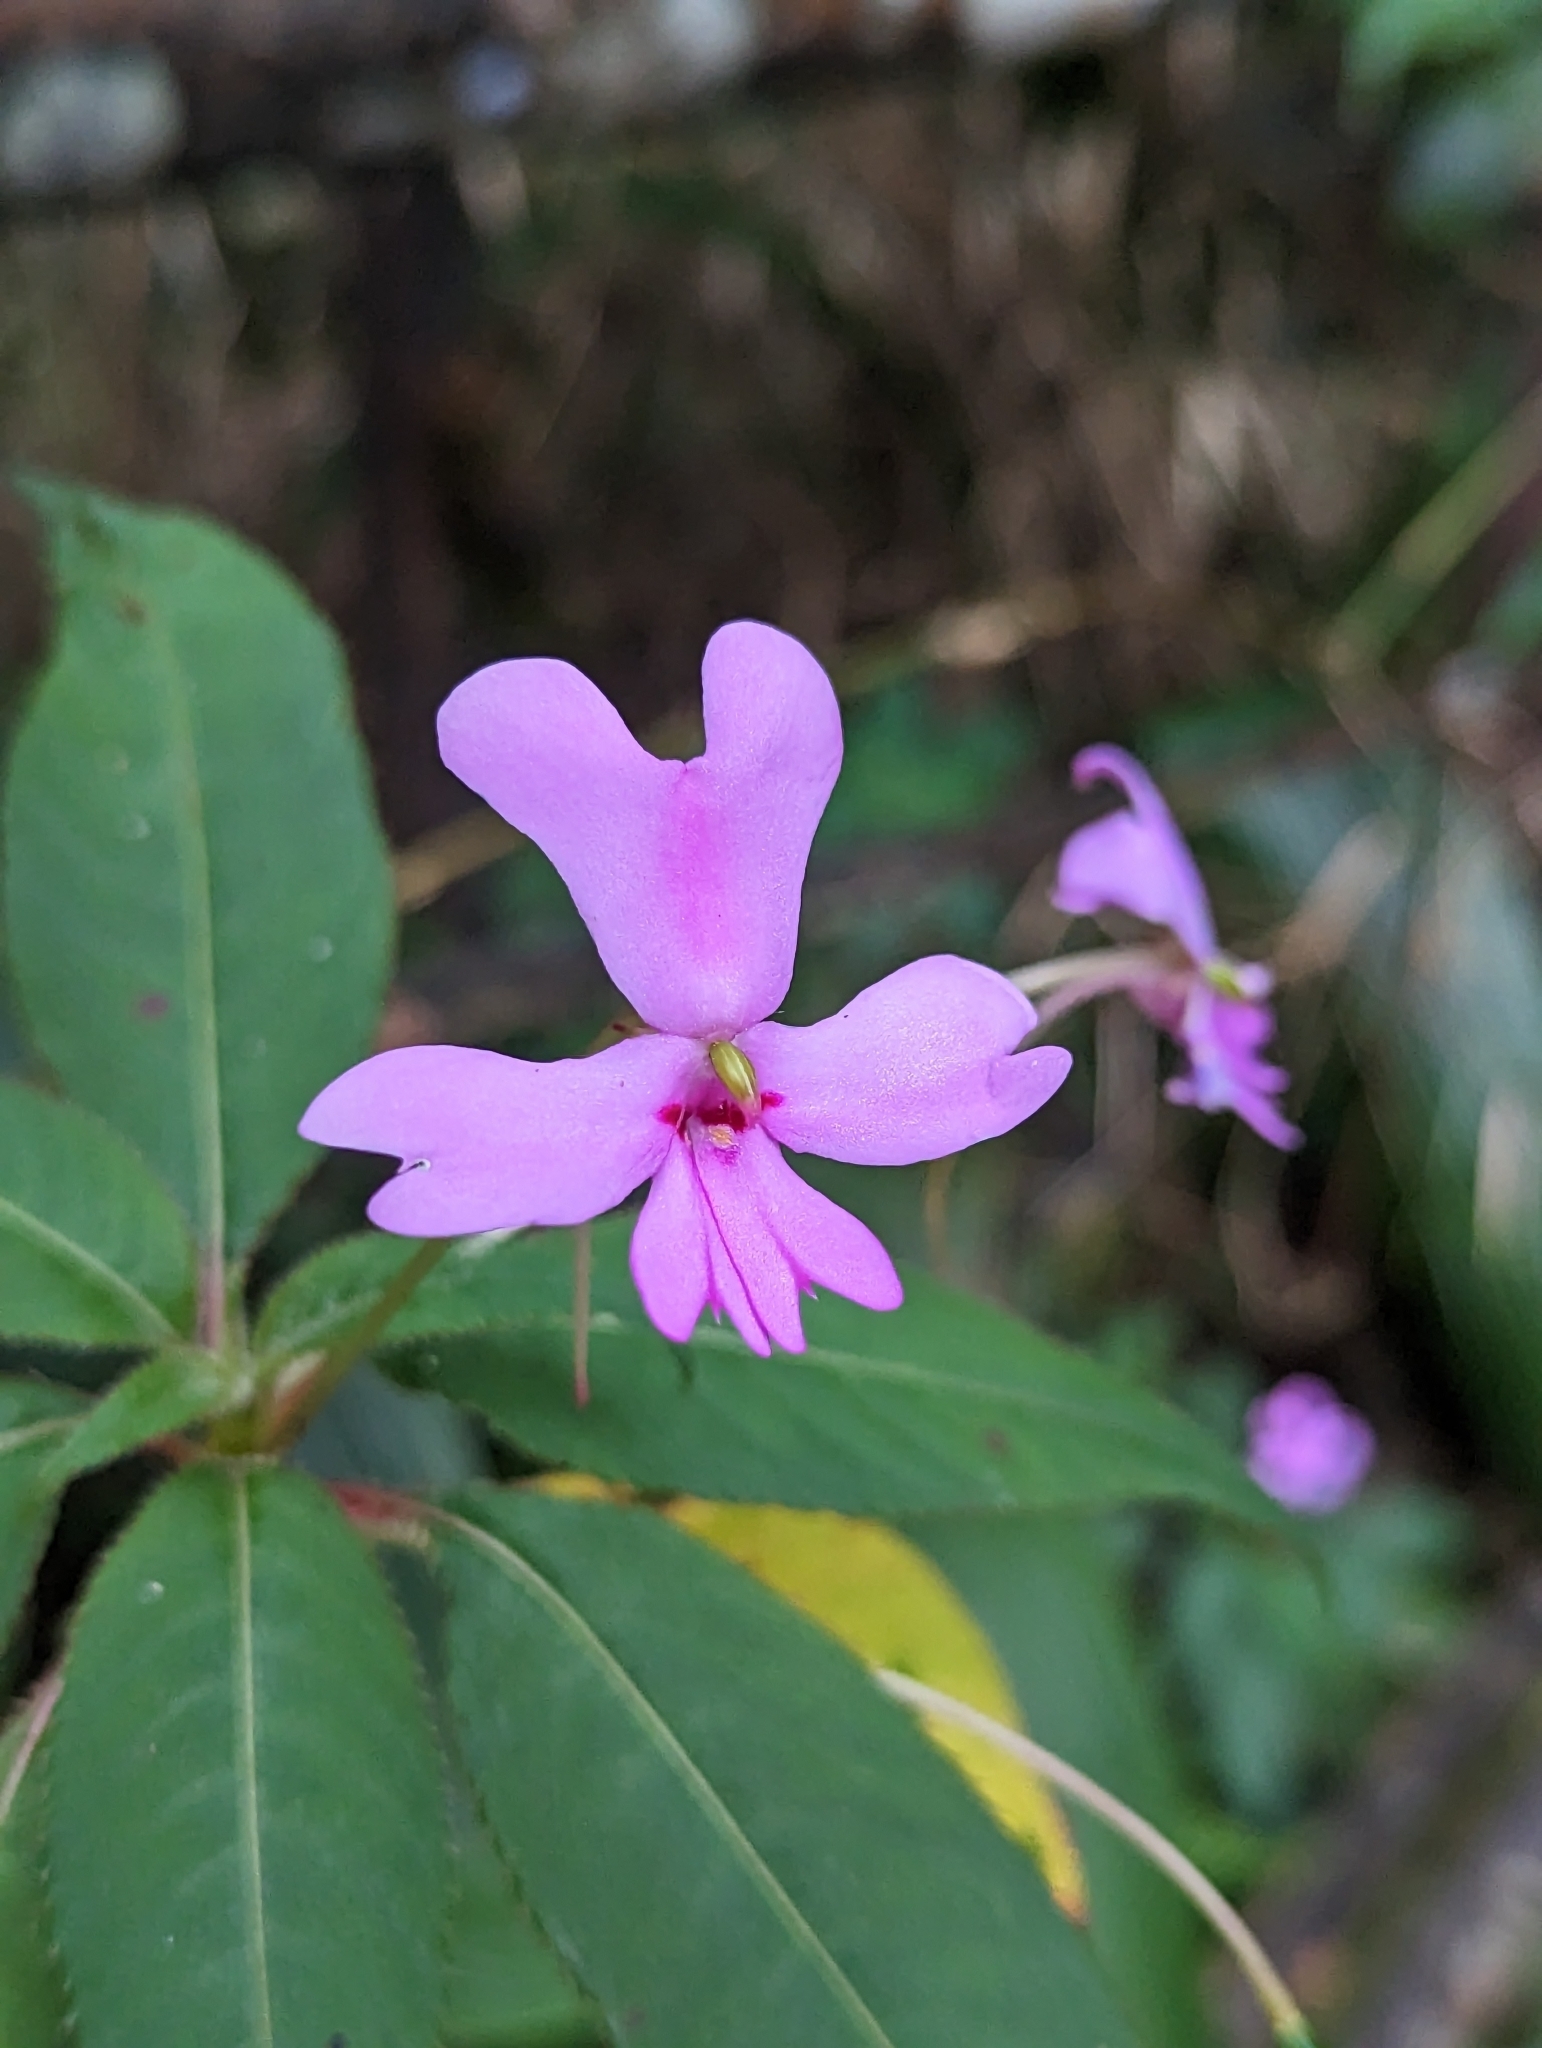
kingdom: Plantae
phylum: Tracheophyta
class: Magnoliopsida
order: Ericales
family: Balsaminaceae
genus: Impatiens
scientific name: Impatiens kinabaluensis
